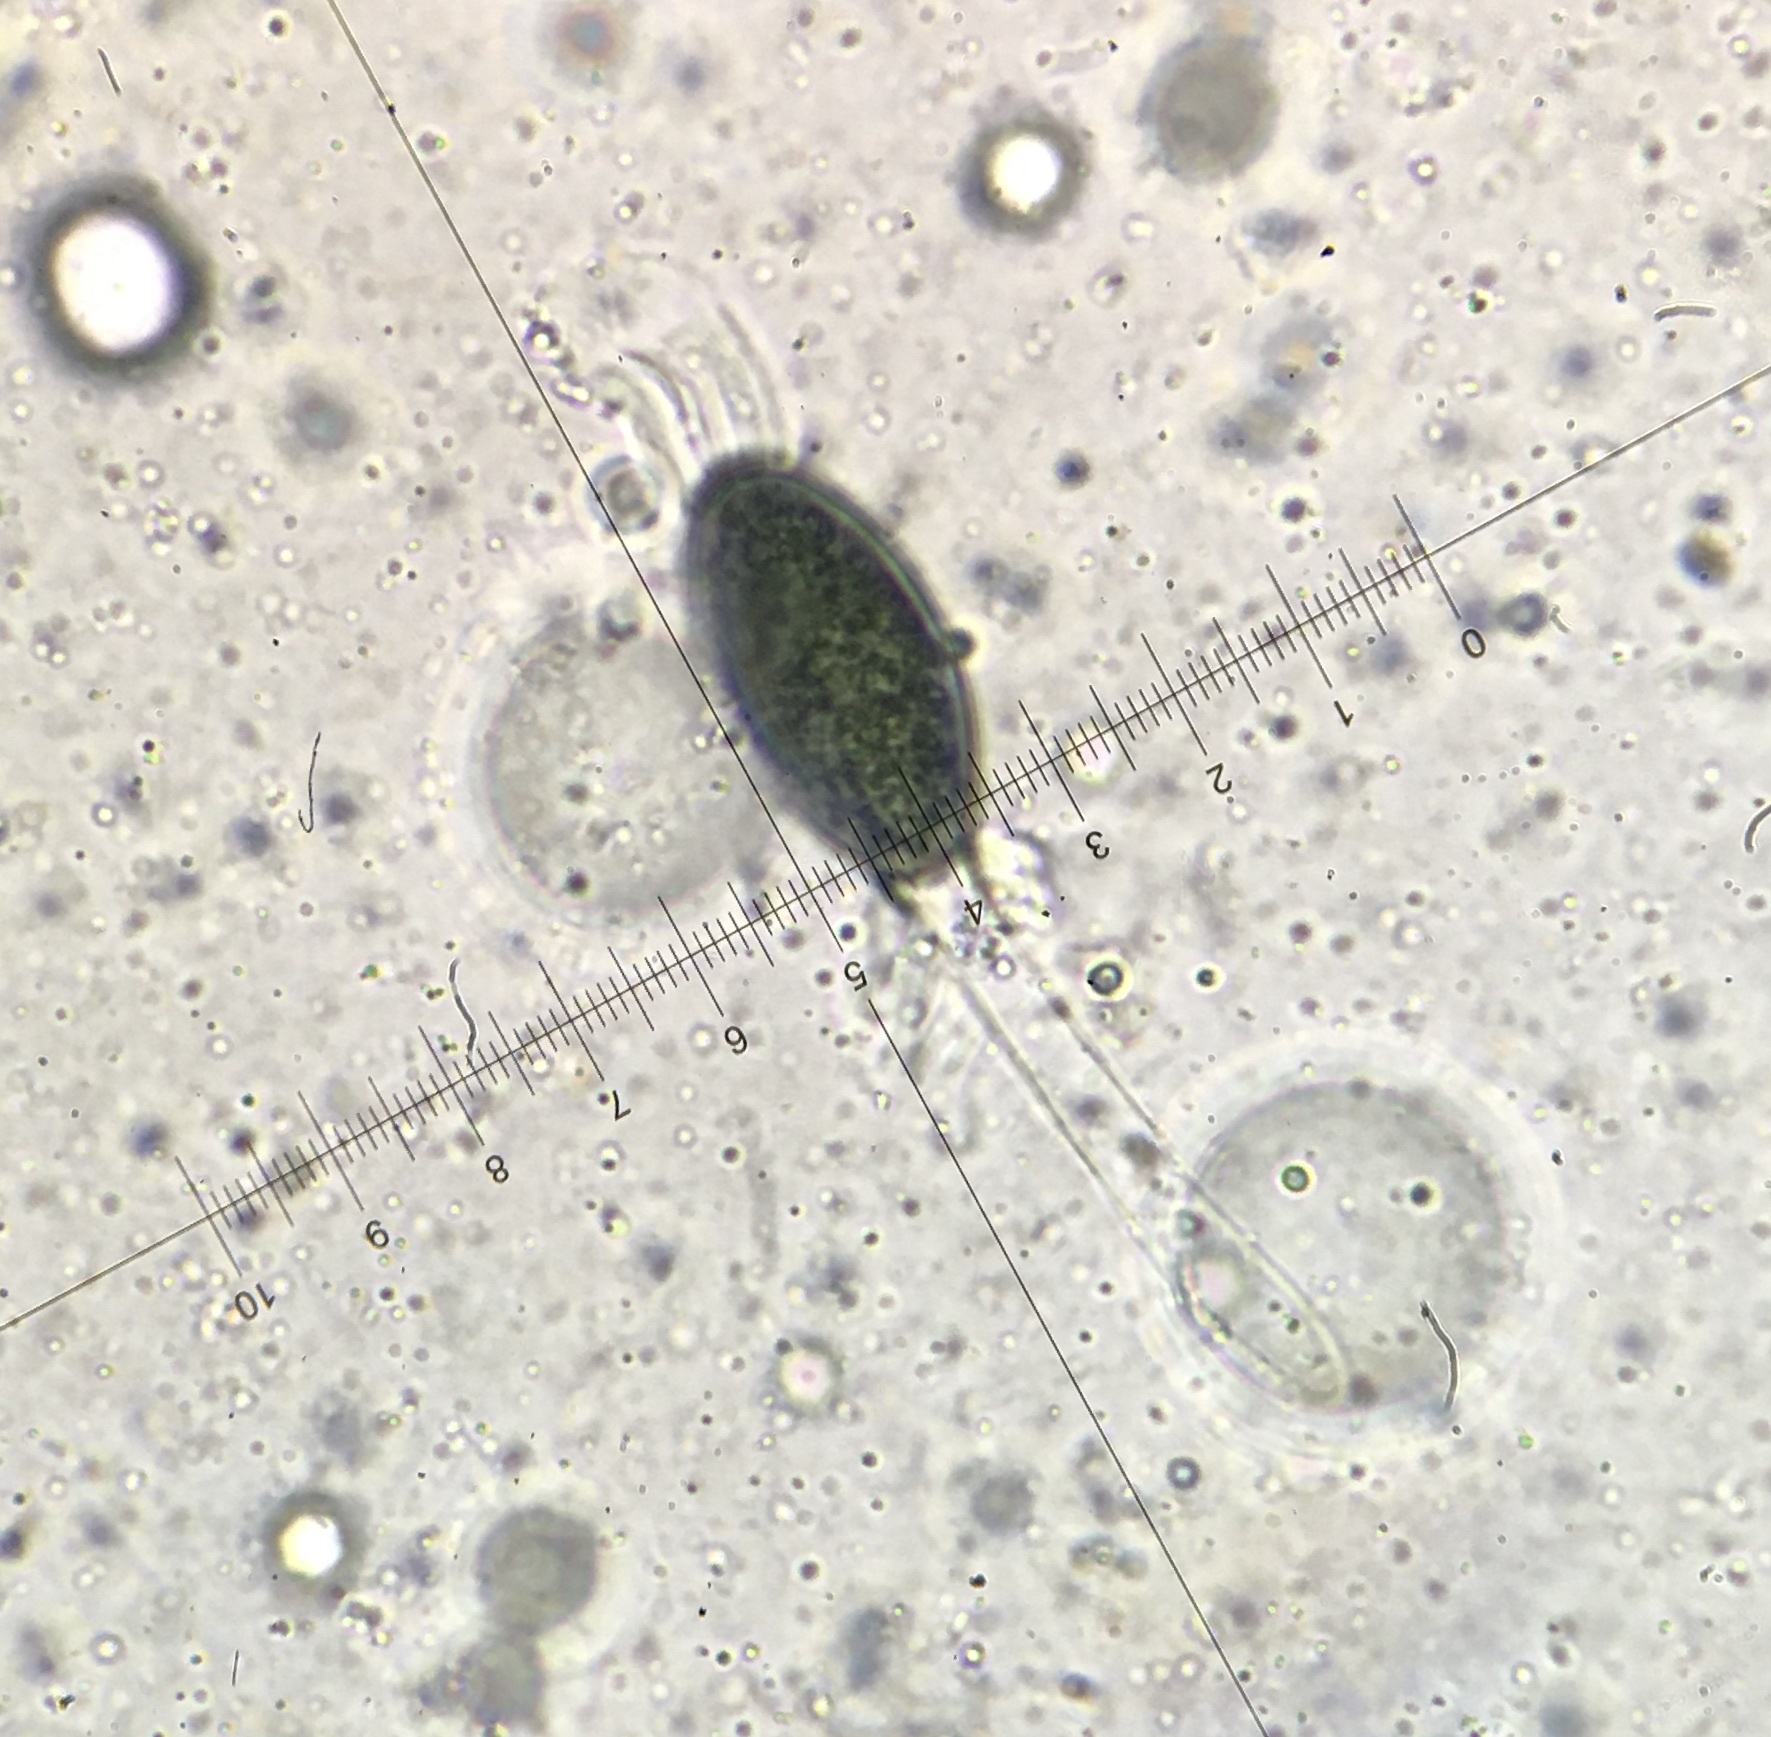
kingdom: Fungi
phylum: Ascomycota
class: Sordariomycetes
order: Sordariales
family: Naviculisporaceae
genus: Rhypophila
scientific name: Rhypophila decipiens
